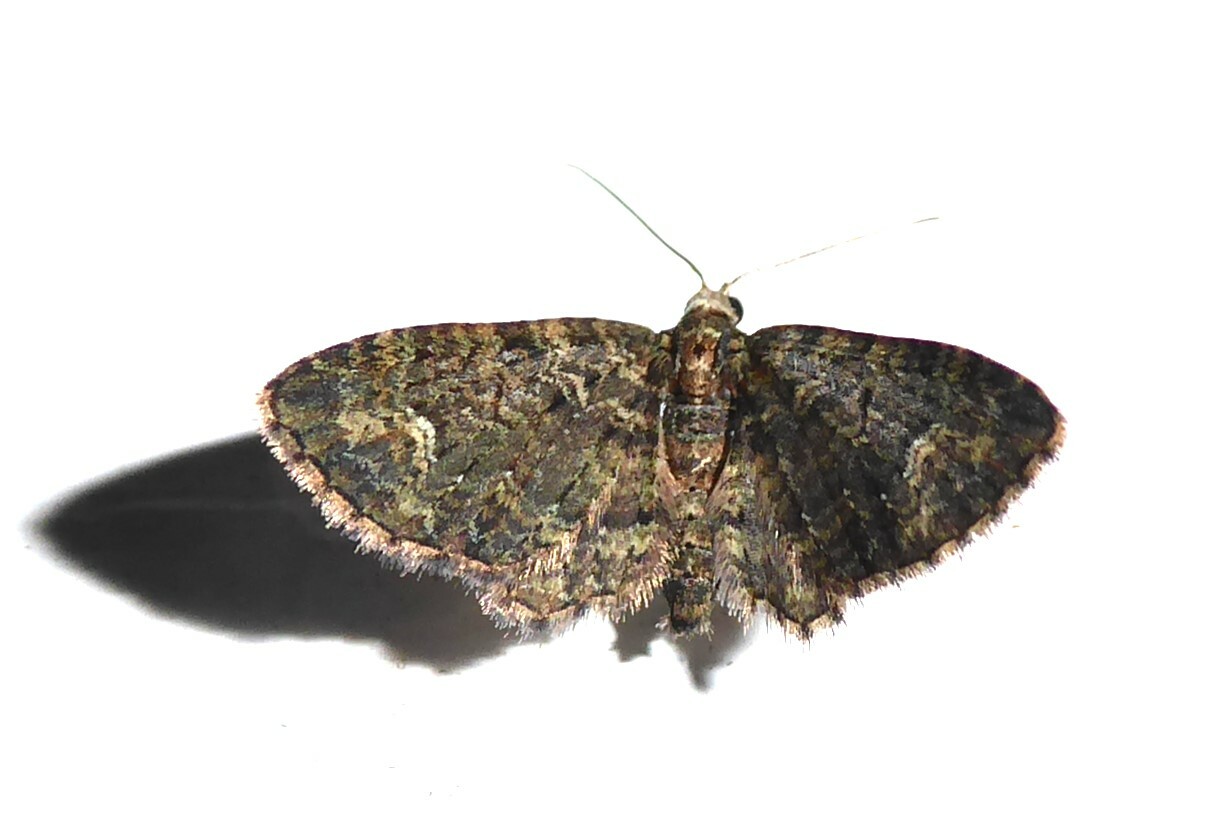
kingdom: Animalia
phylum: Arthropoda
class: Insecta
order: Lepidoptera
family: Geometridae
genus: Pasiphilodes
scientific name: Pasiphilodes testulata
